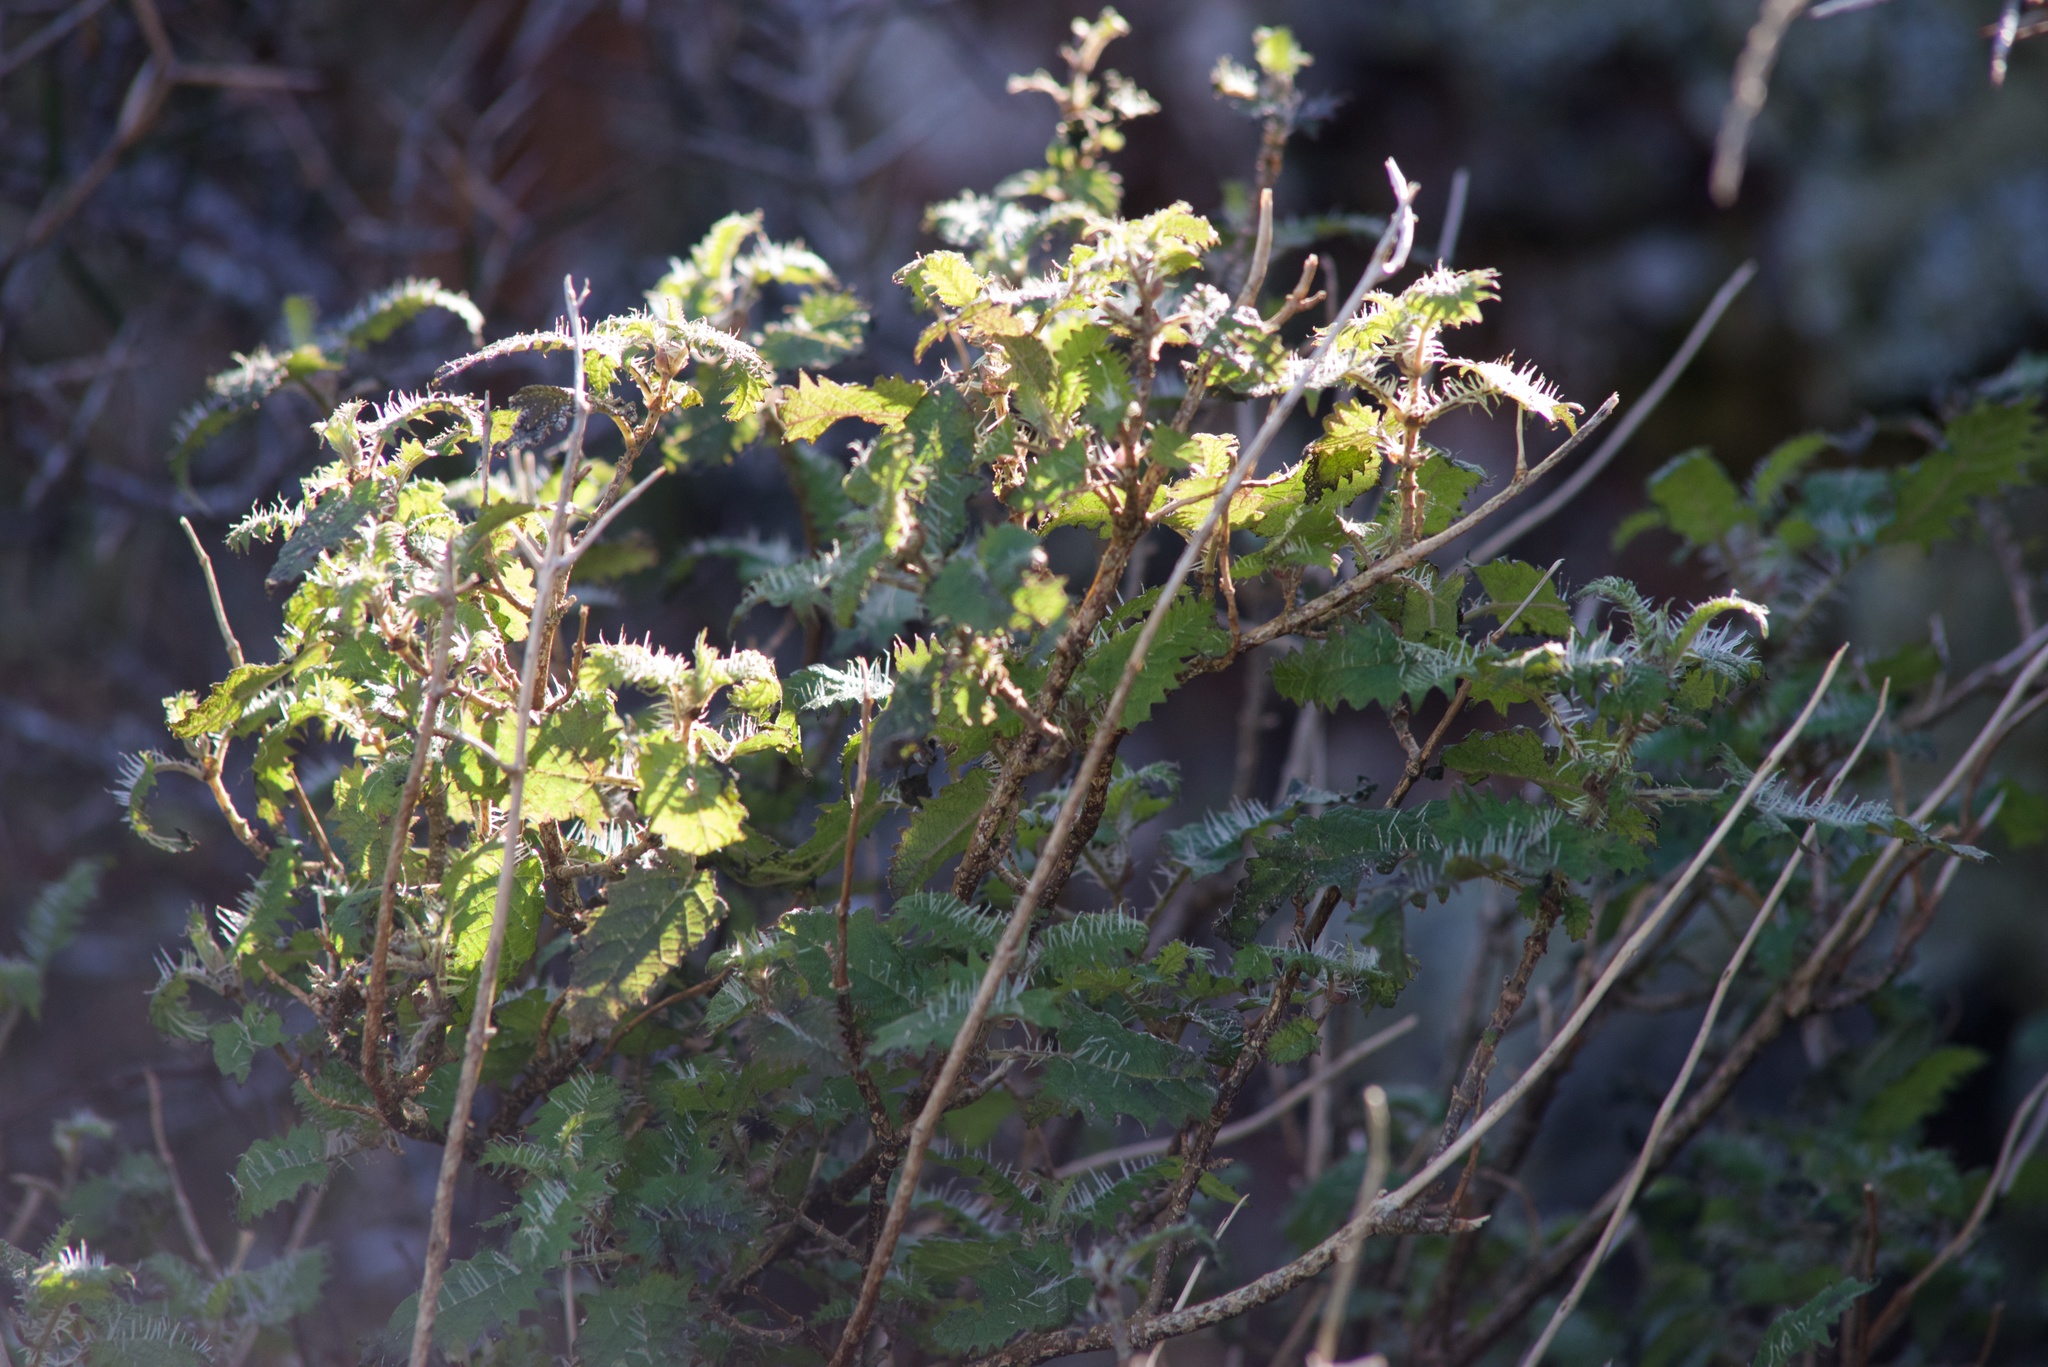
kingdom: Plantae
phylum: Tracheophyta
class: Magnoliopsida
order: Rosales
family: Urticaceae
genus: Urtica
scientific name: Urtica ferox
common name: Tree nettle
